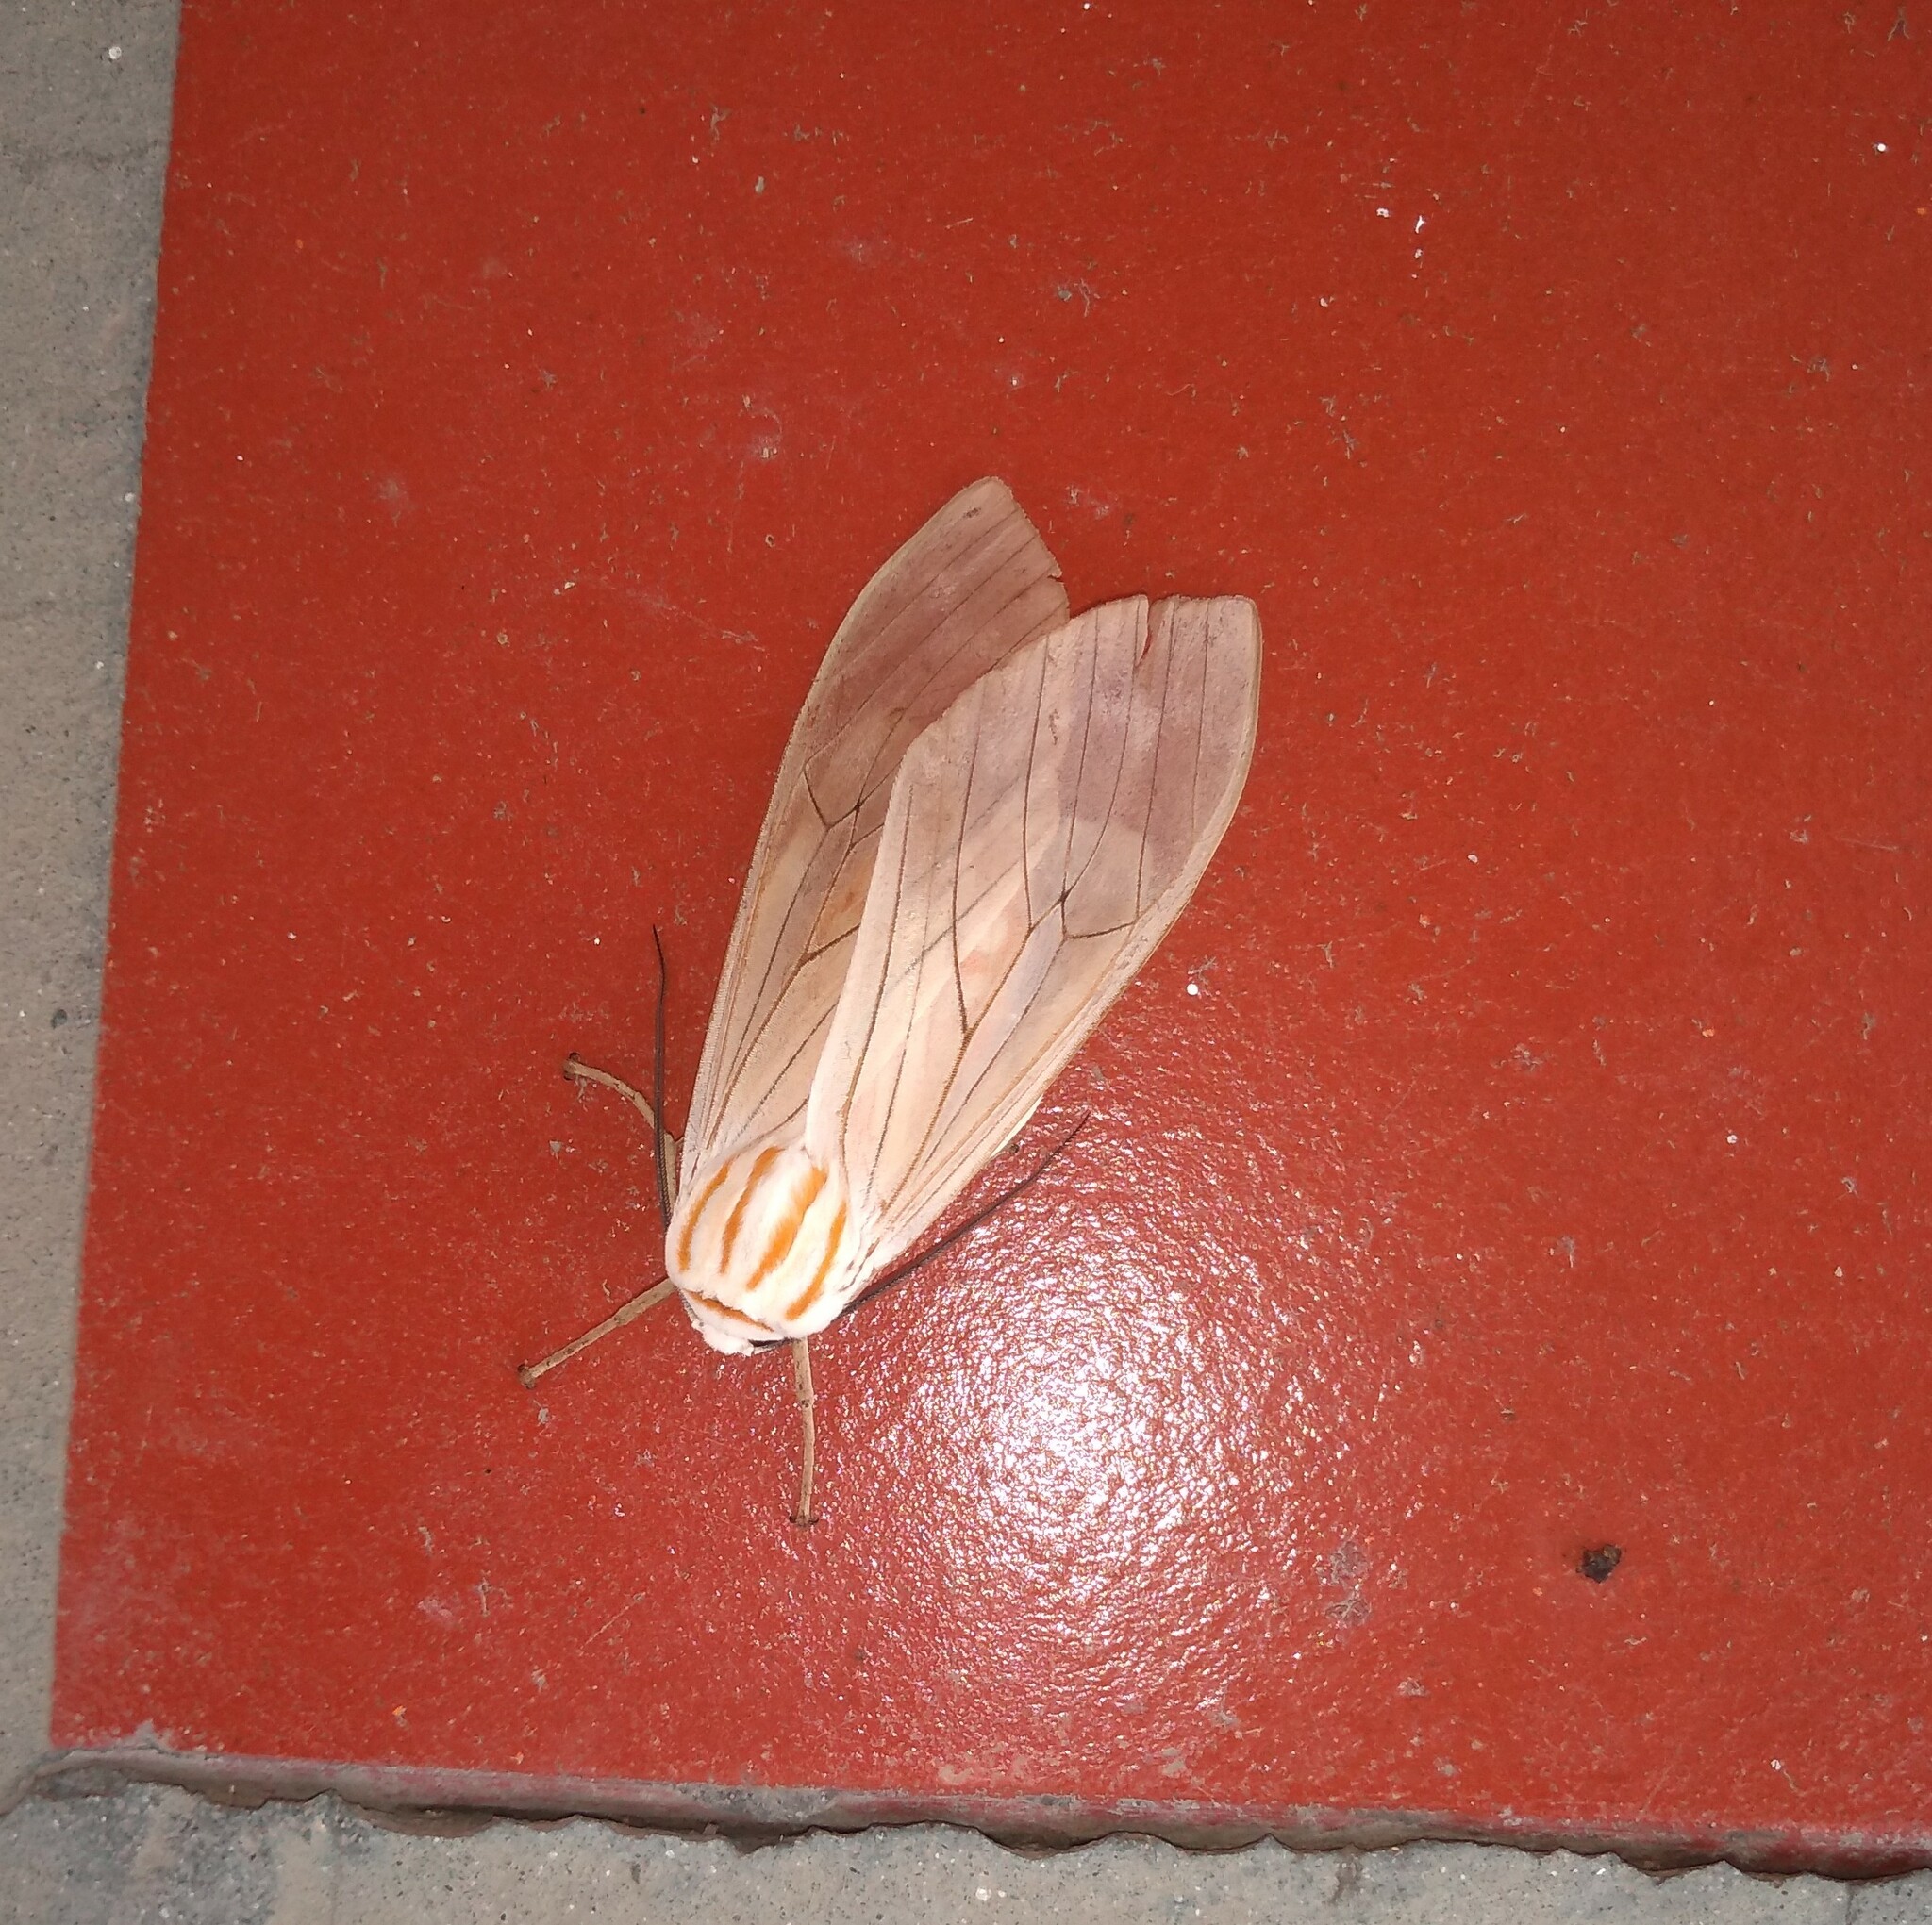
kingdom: Animalia
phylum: Arthropoda
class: Insecta
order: Lepidoptera
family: Erebidae
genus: Amastus
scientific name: Amastus aconia
